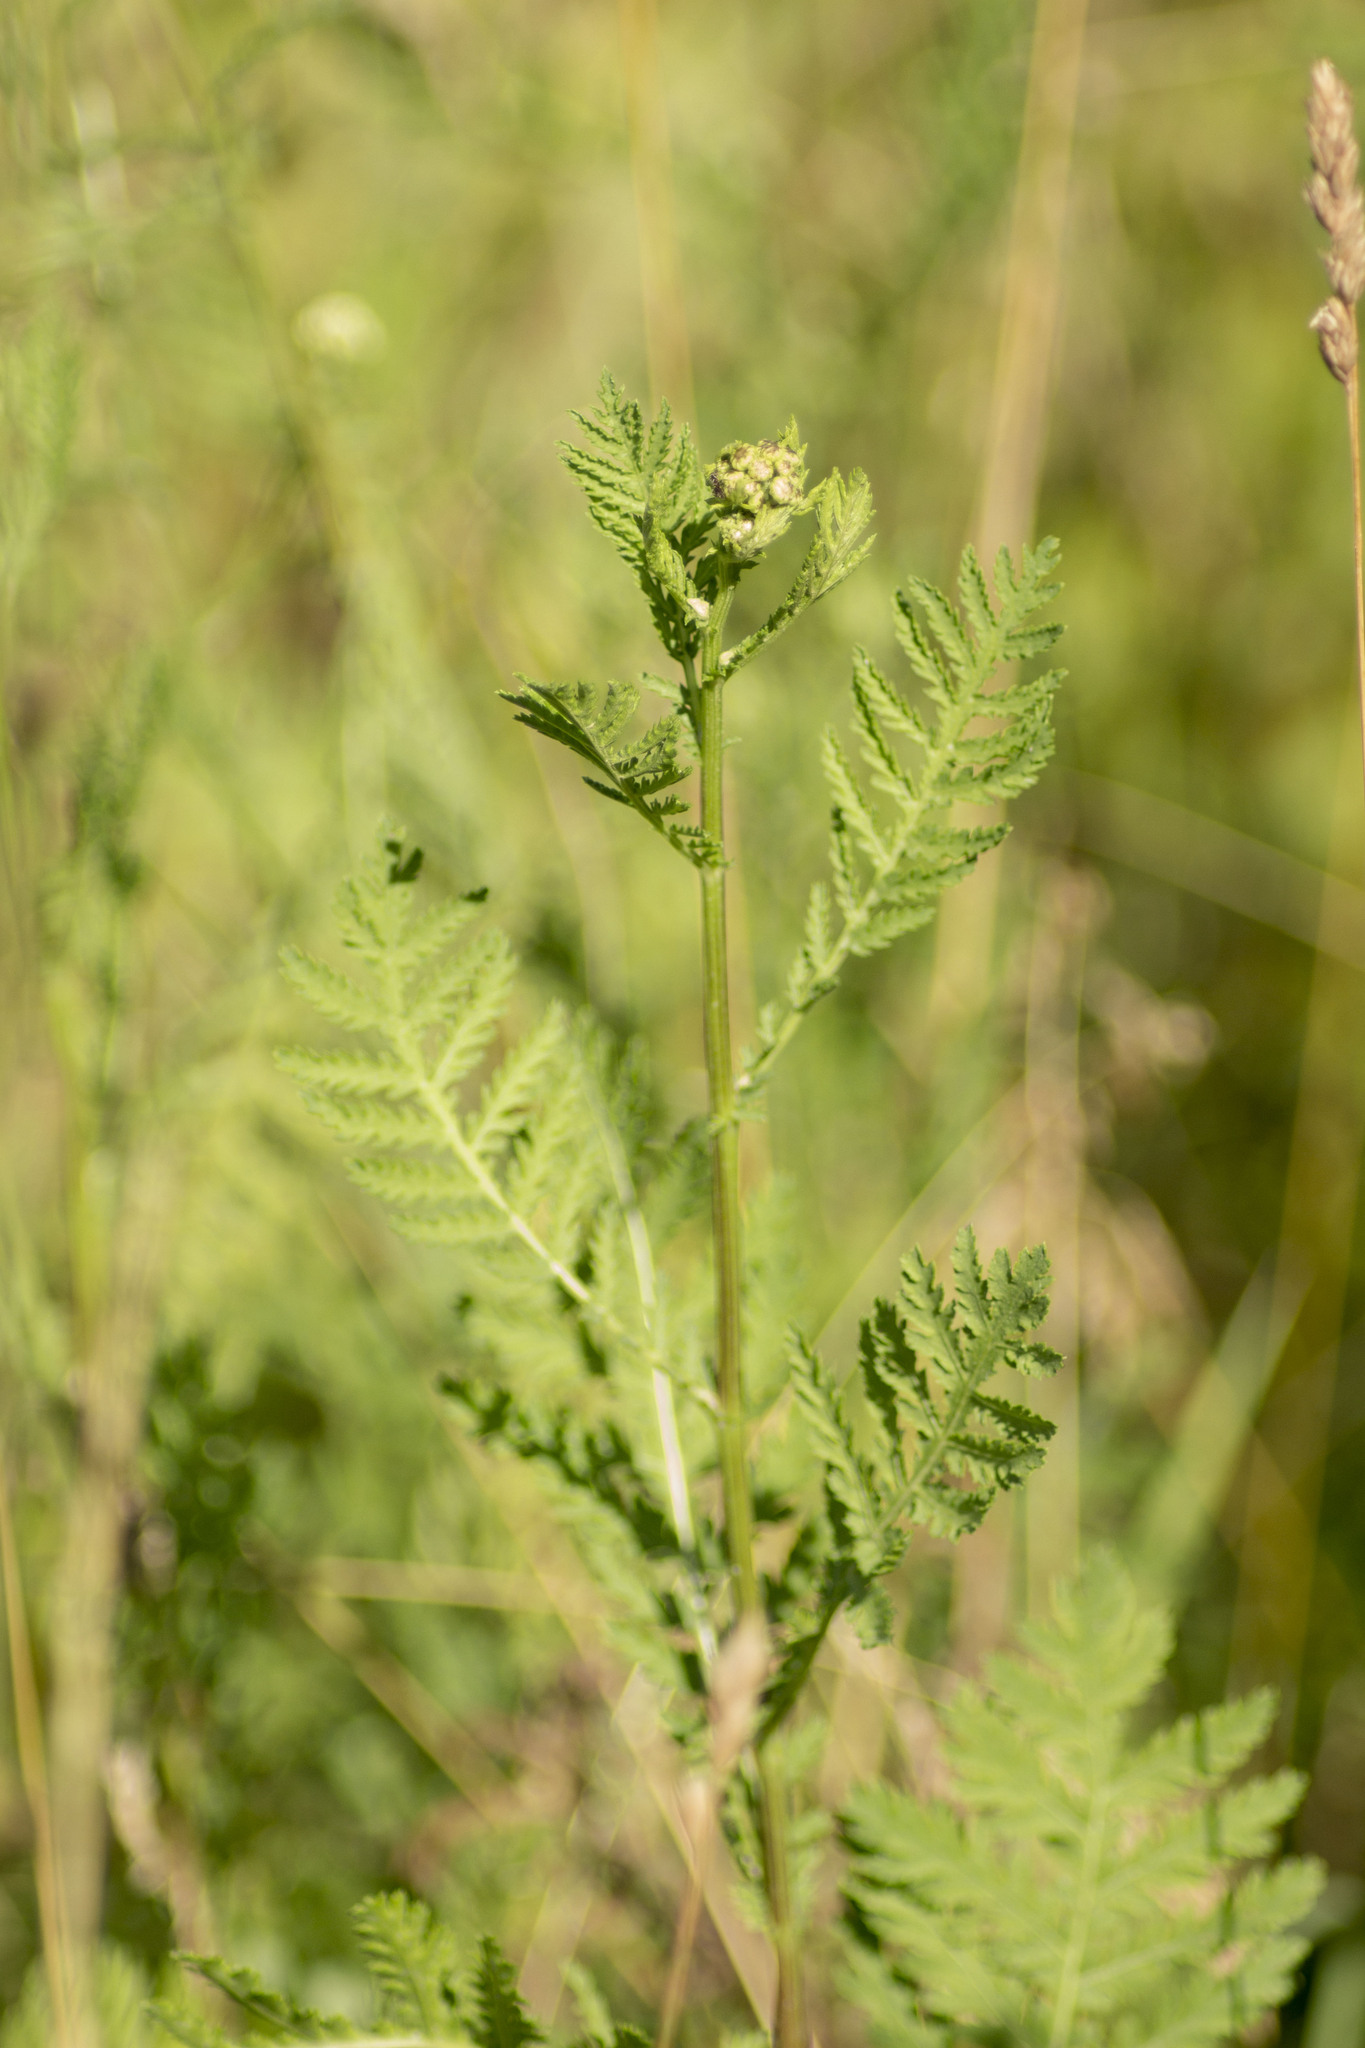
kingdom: Plantae
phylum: Tracheophyta
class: Magnoliopsida
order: Asterales
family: Asteraceae
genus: Tanacetum
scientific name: Tanacetum vulgare
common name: Common tansy
